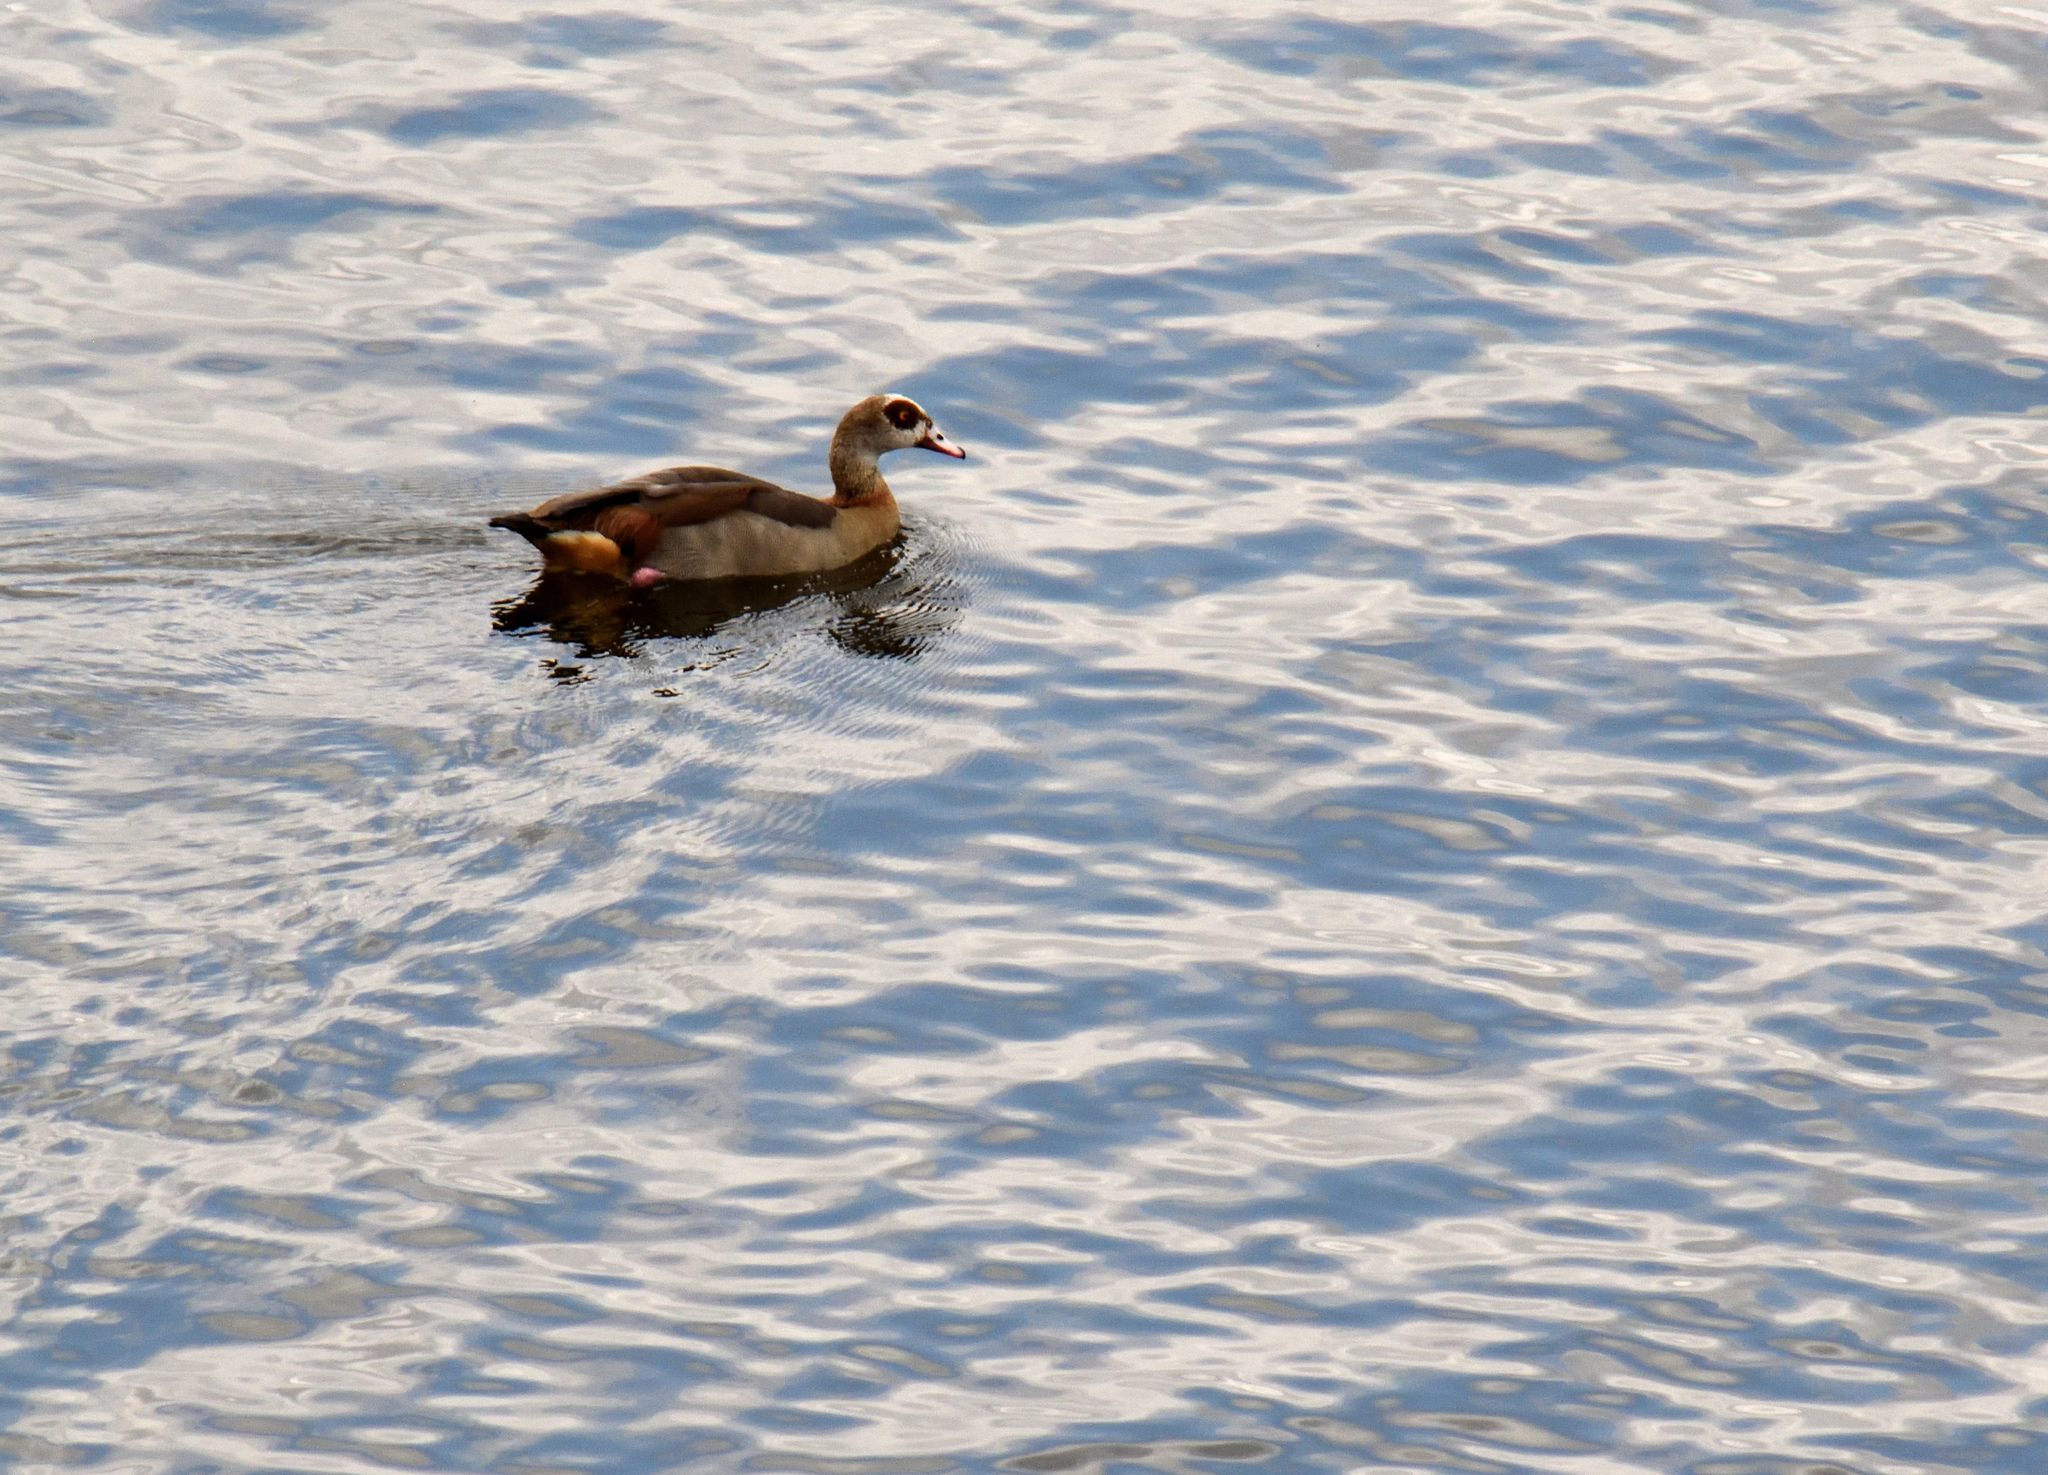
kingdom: Animalia
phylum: Chordata
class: Aves
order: Anseriformes
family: Anatidae
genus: Alopochen
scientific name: Alopochen aegyptiaca
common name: Egyptian goose
